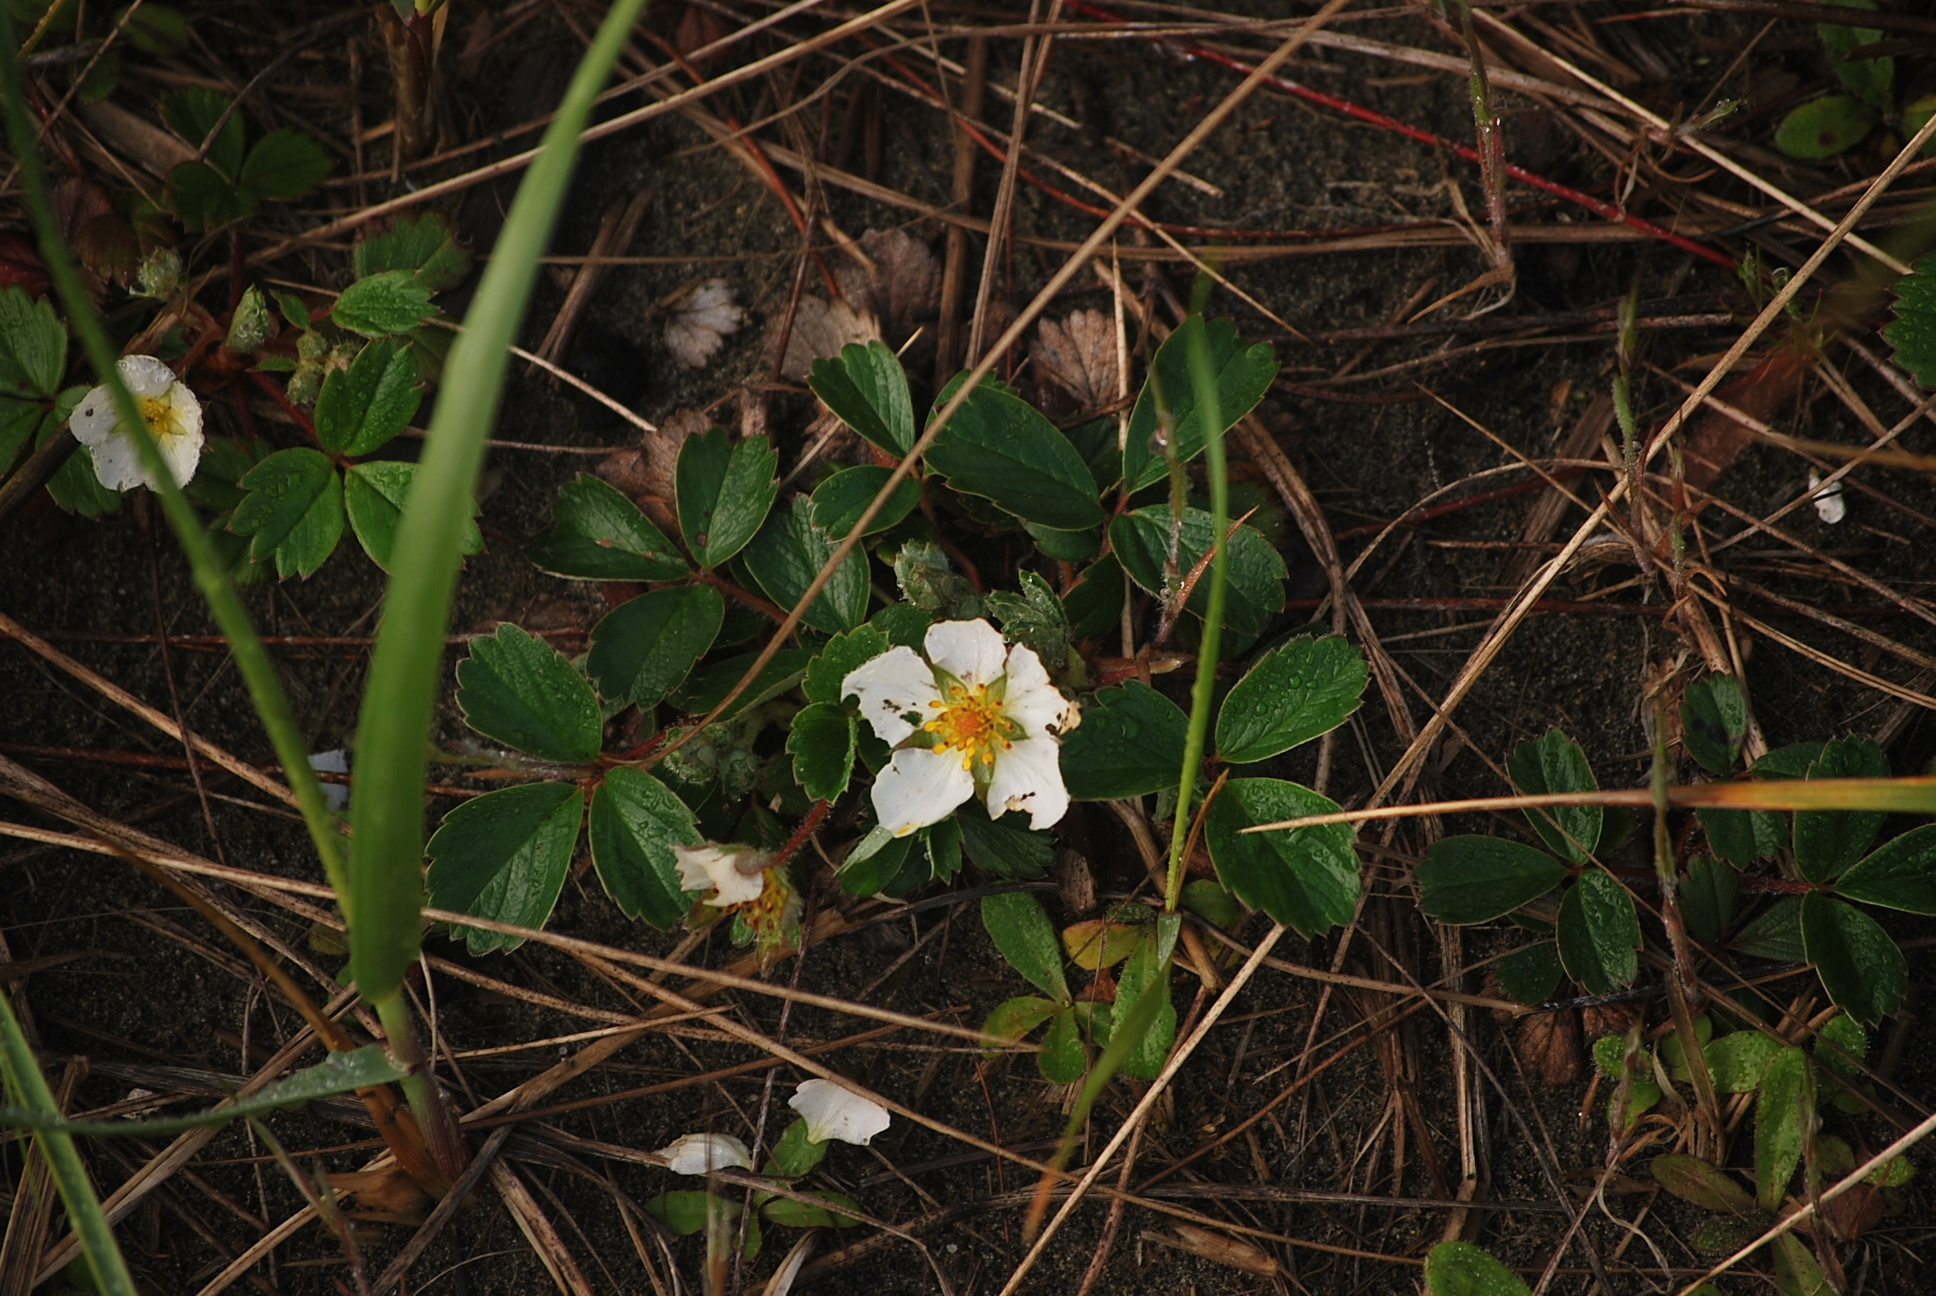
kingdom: Plantae
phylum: Tracheophyta
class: Magnoliopsida
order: Rosales
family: Rosaceae
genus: Fragaria
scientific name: Fragaria chiloensis
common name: Beach strawberry
